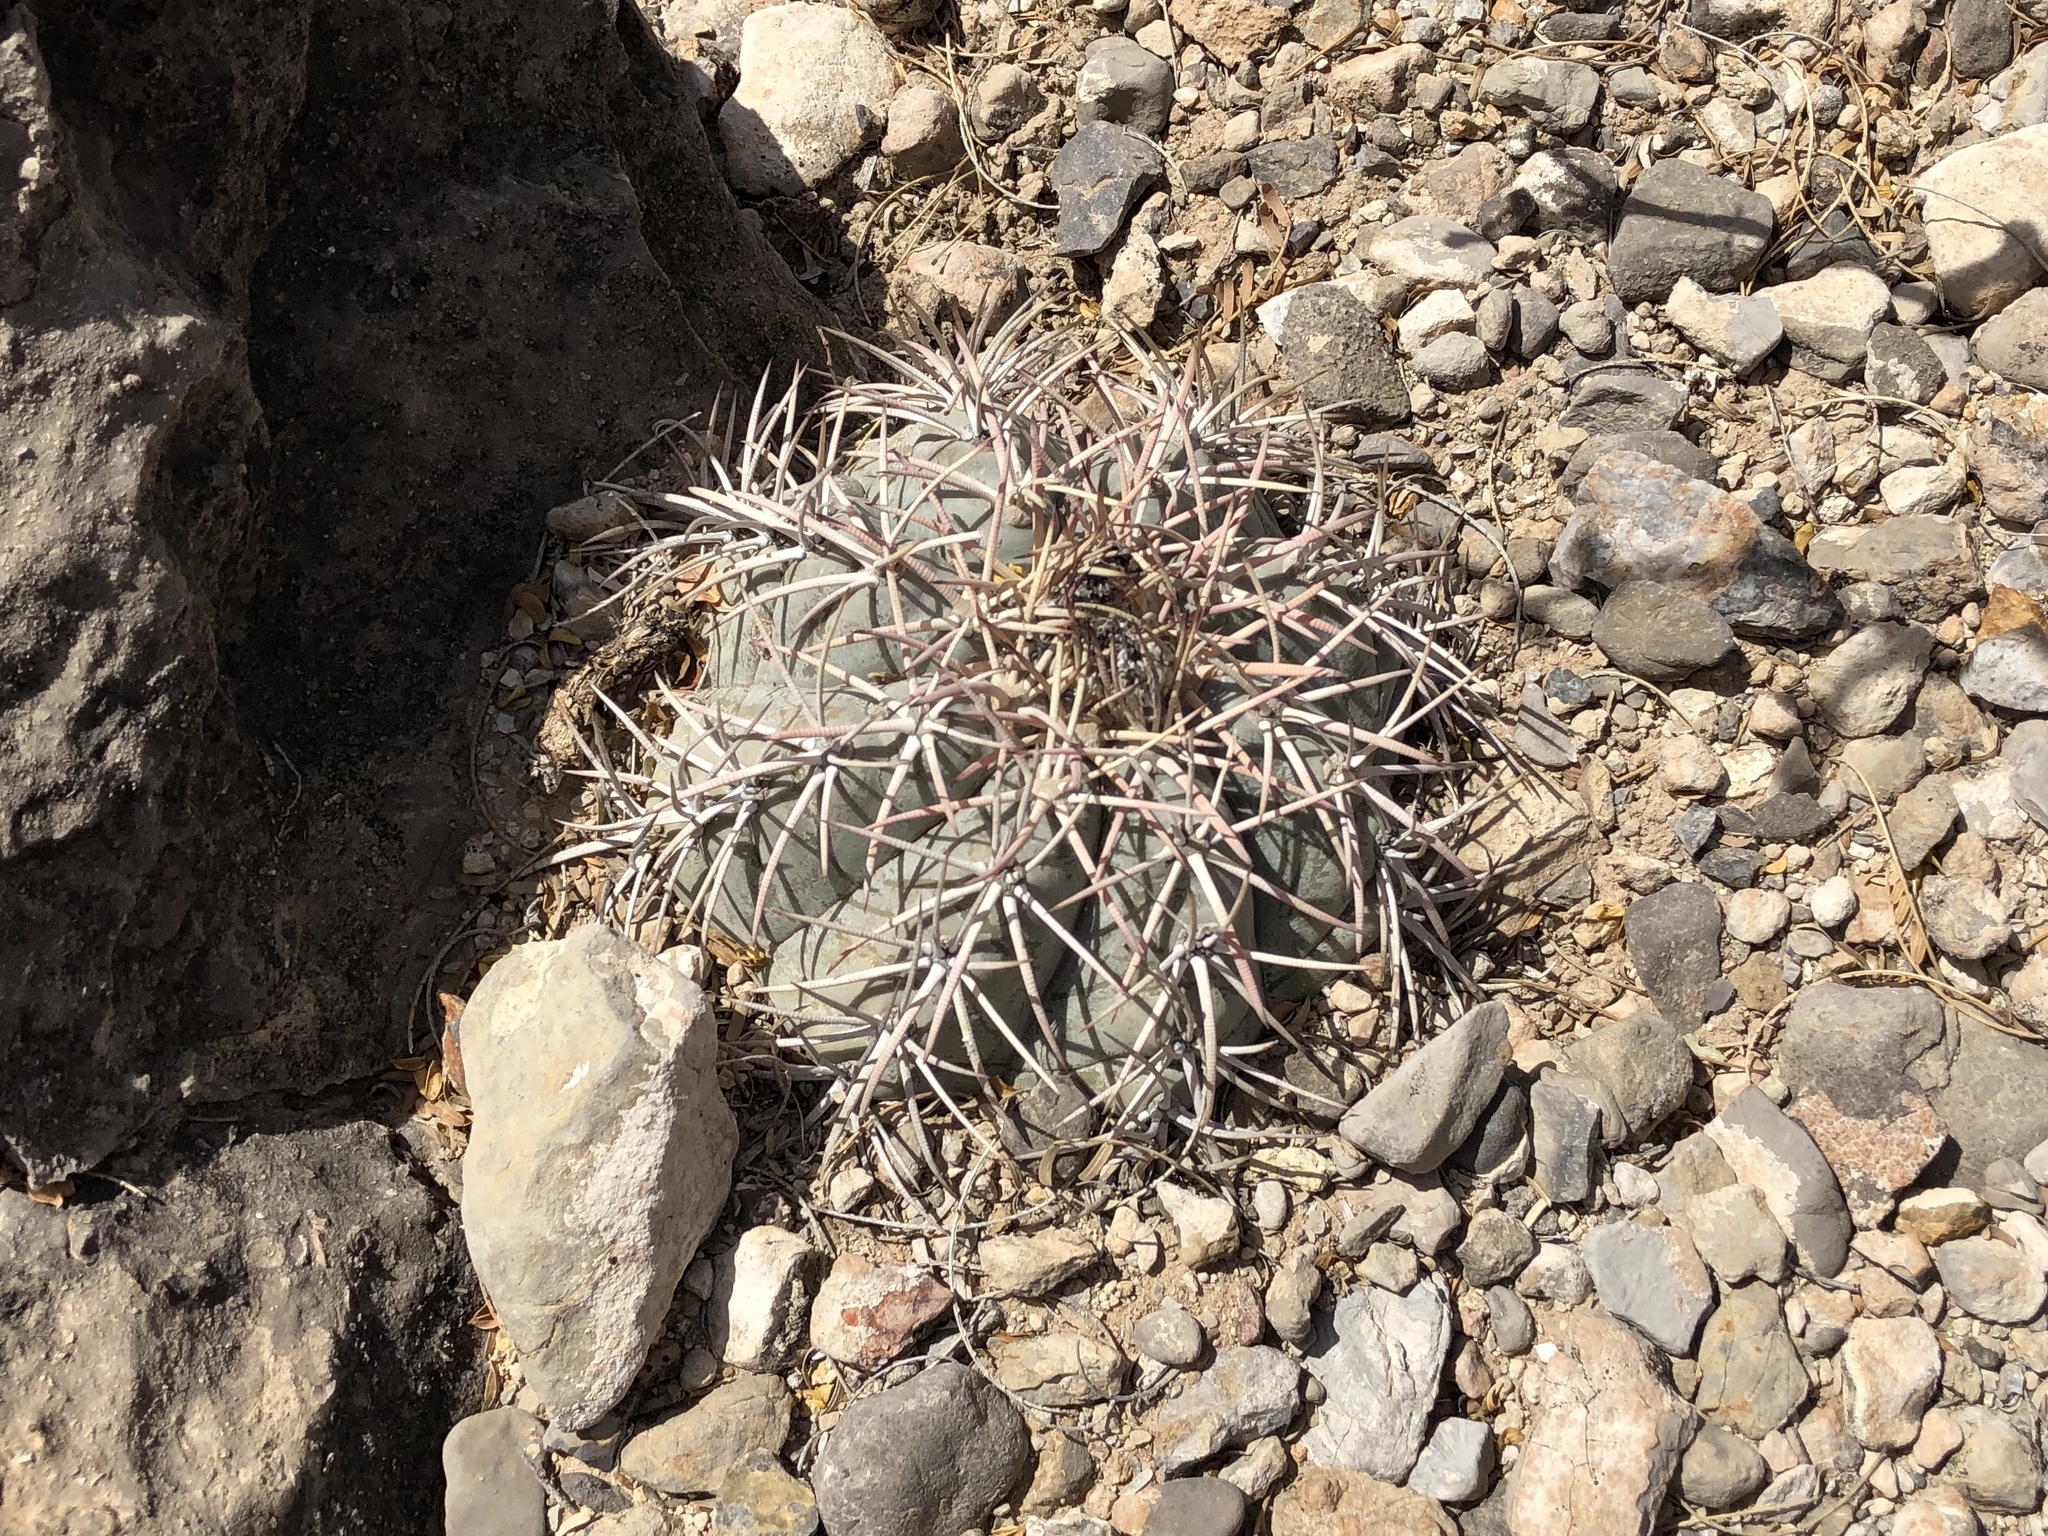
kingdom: Plantae
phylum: Tracheophyta
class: Magnoliopsida
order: Caryophyllales
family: Cactaceae
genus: Echinocactus
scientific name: Echinocactus horizonthalonius
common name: Devilshead
